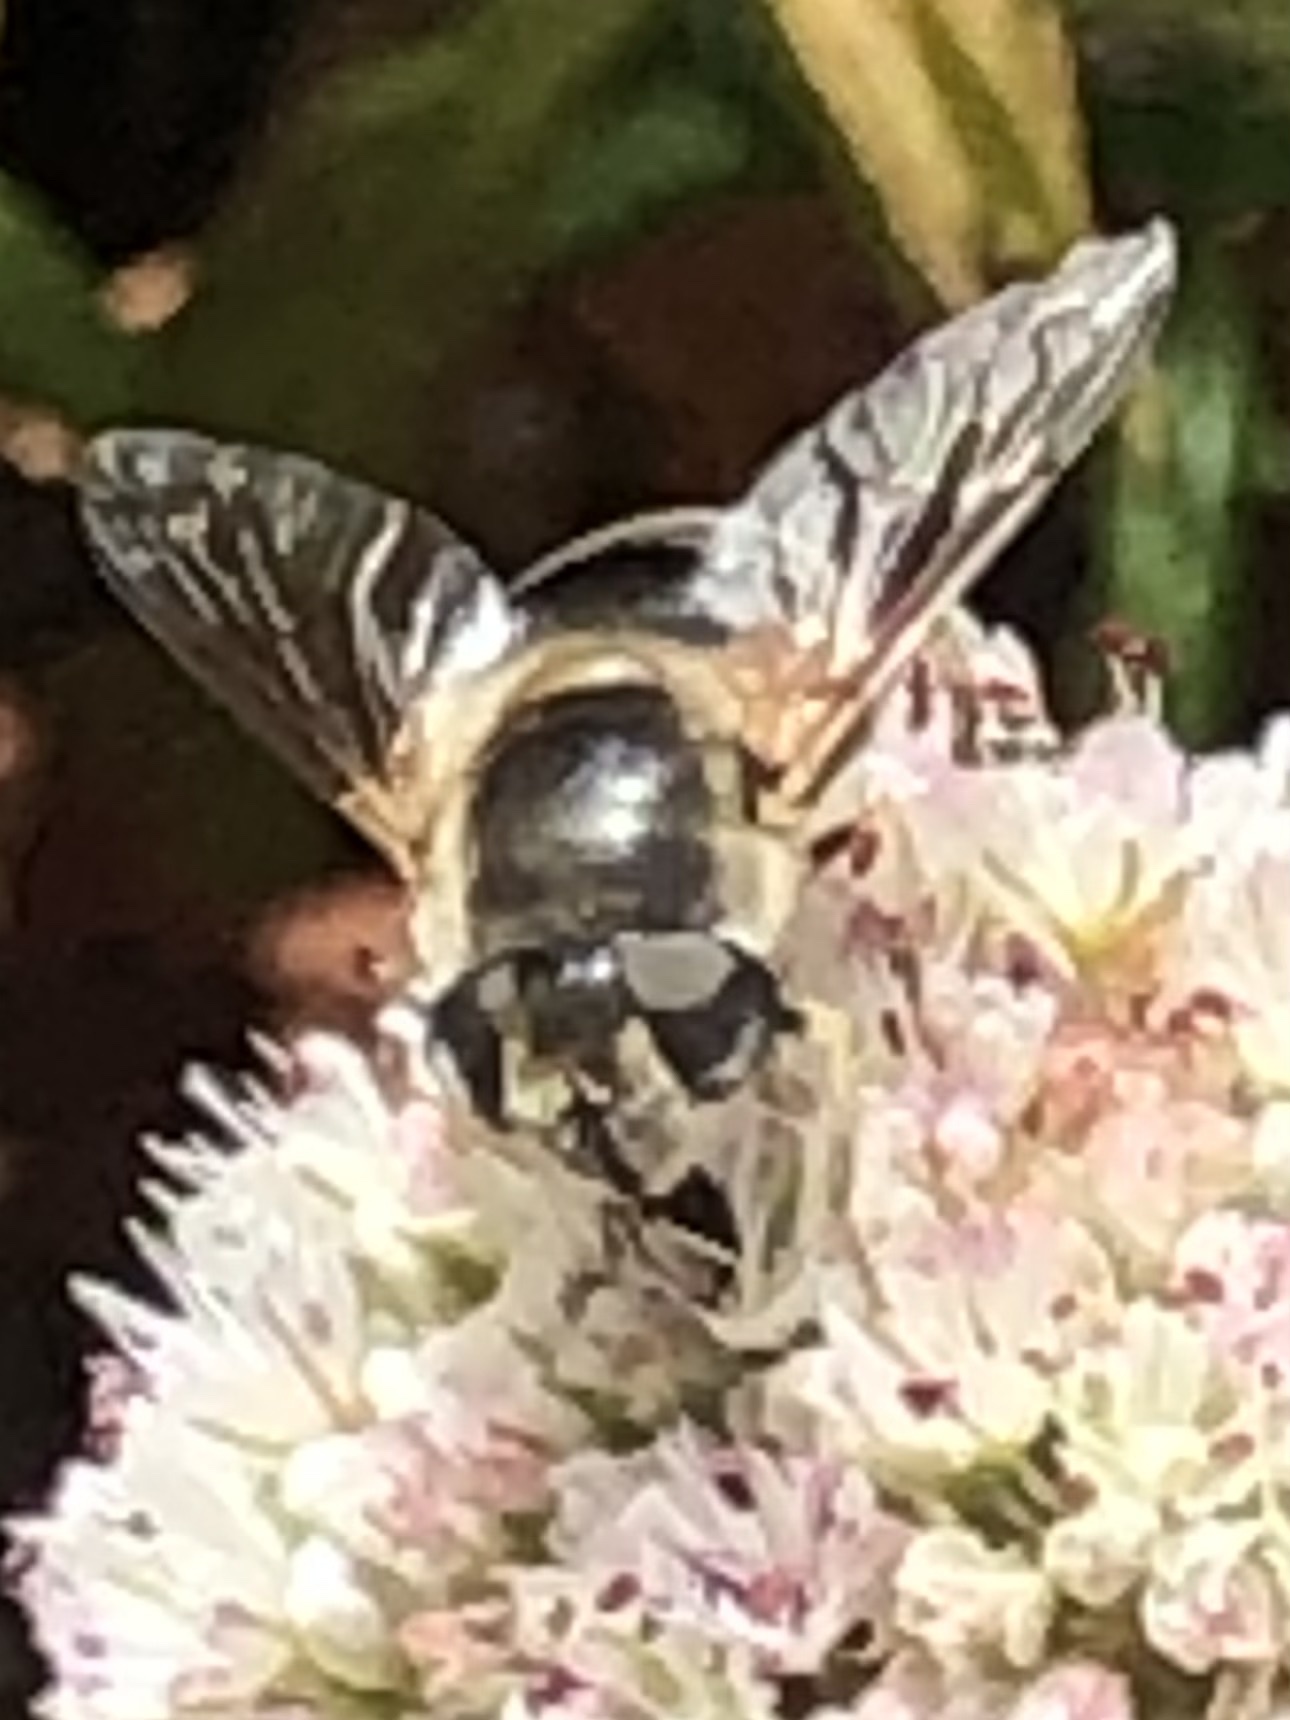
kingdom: Animalia
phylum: Arthropoda
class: Insecta
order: Diptera
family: Syrphidae
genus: Eristalis
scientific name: Eristalis hirta
